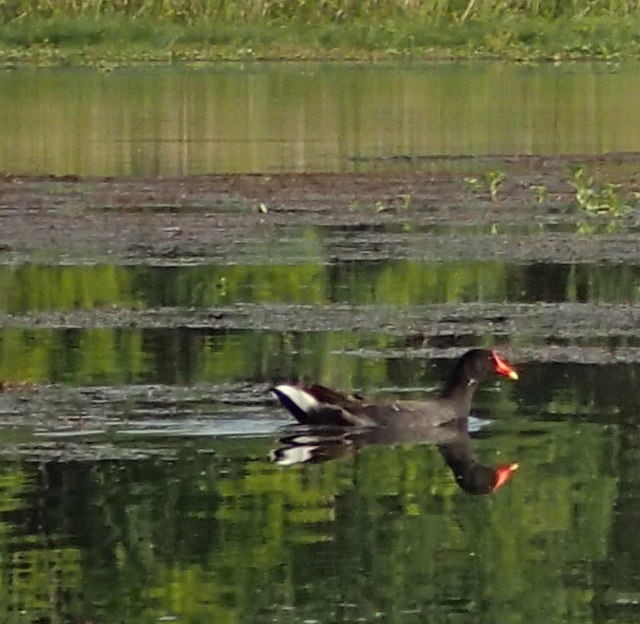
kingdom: Animalia
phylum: Chordata
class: Aves
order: Gruiformes
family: Rallidae
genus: Gallinula
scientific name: Gallinula chloropus
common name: Common moorhen
